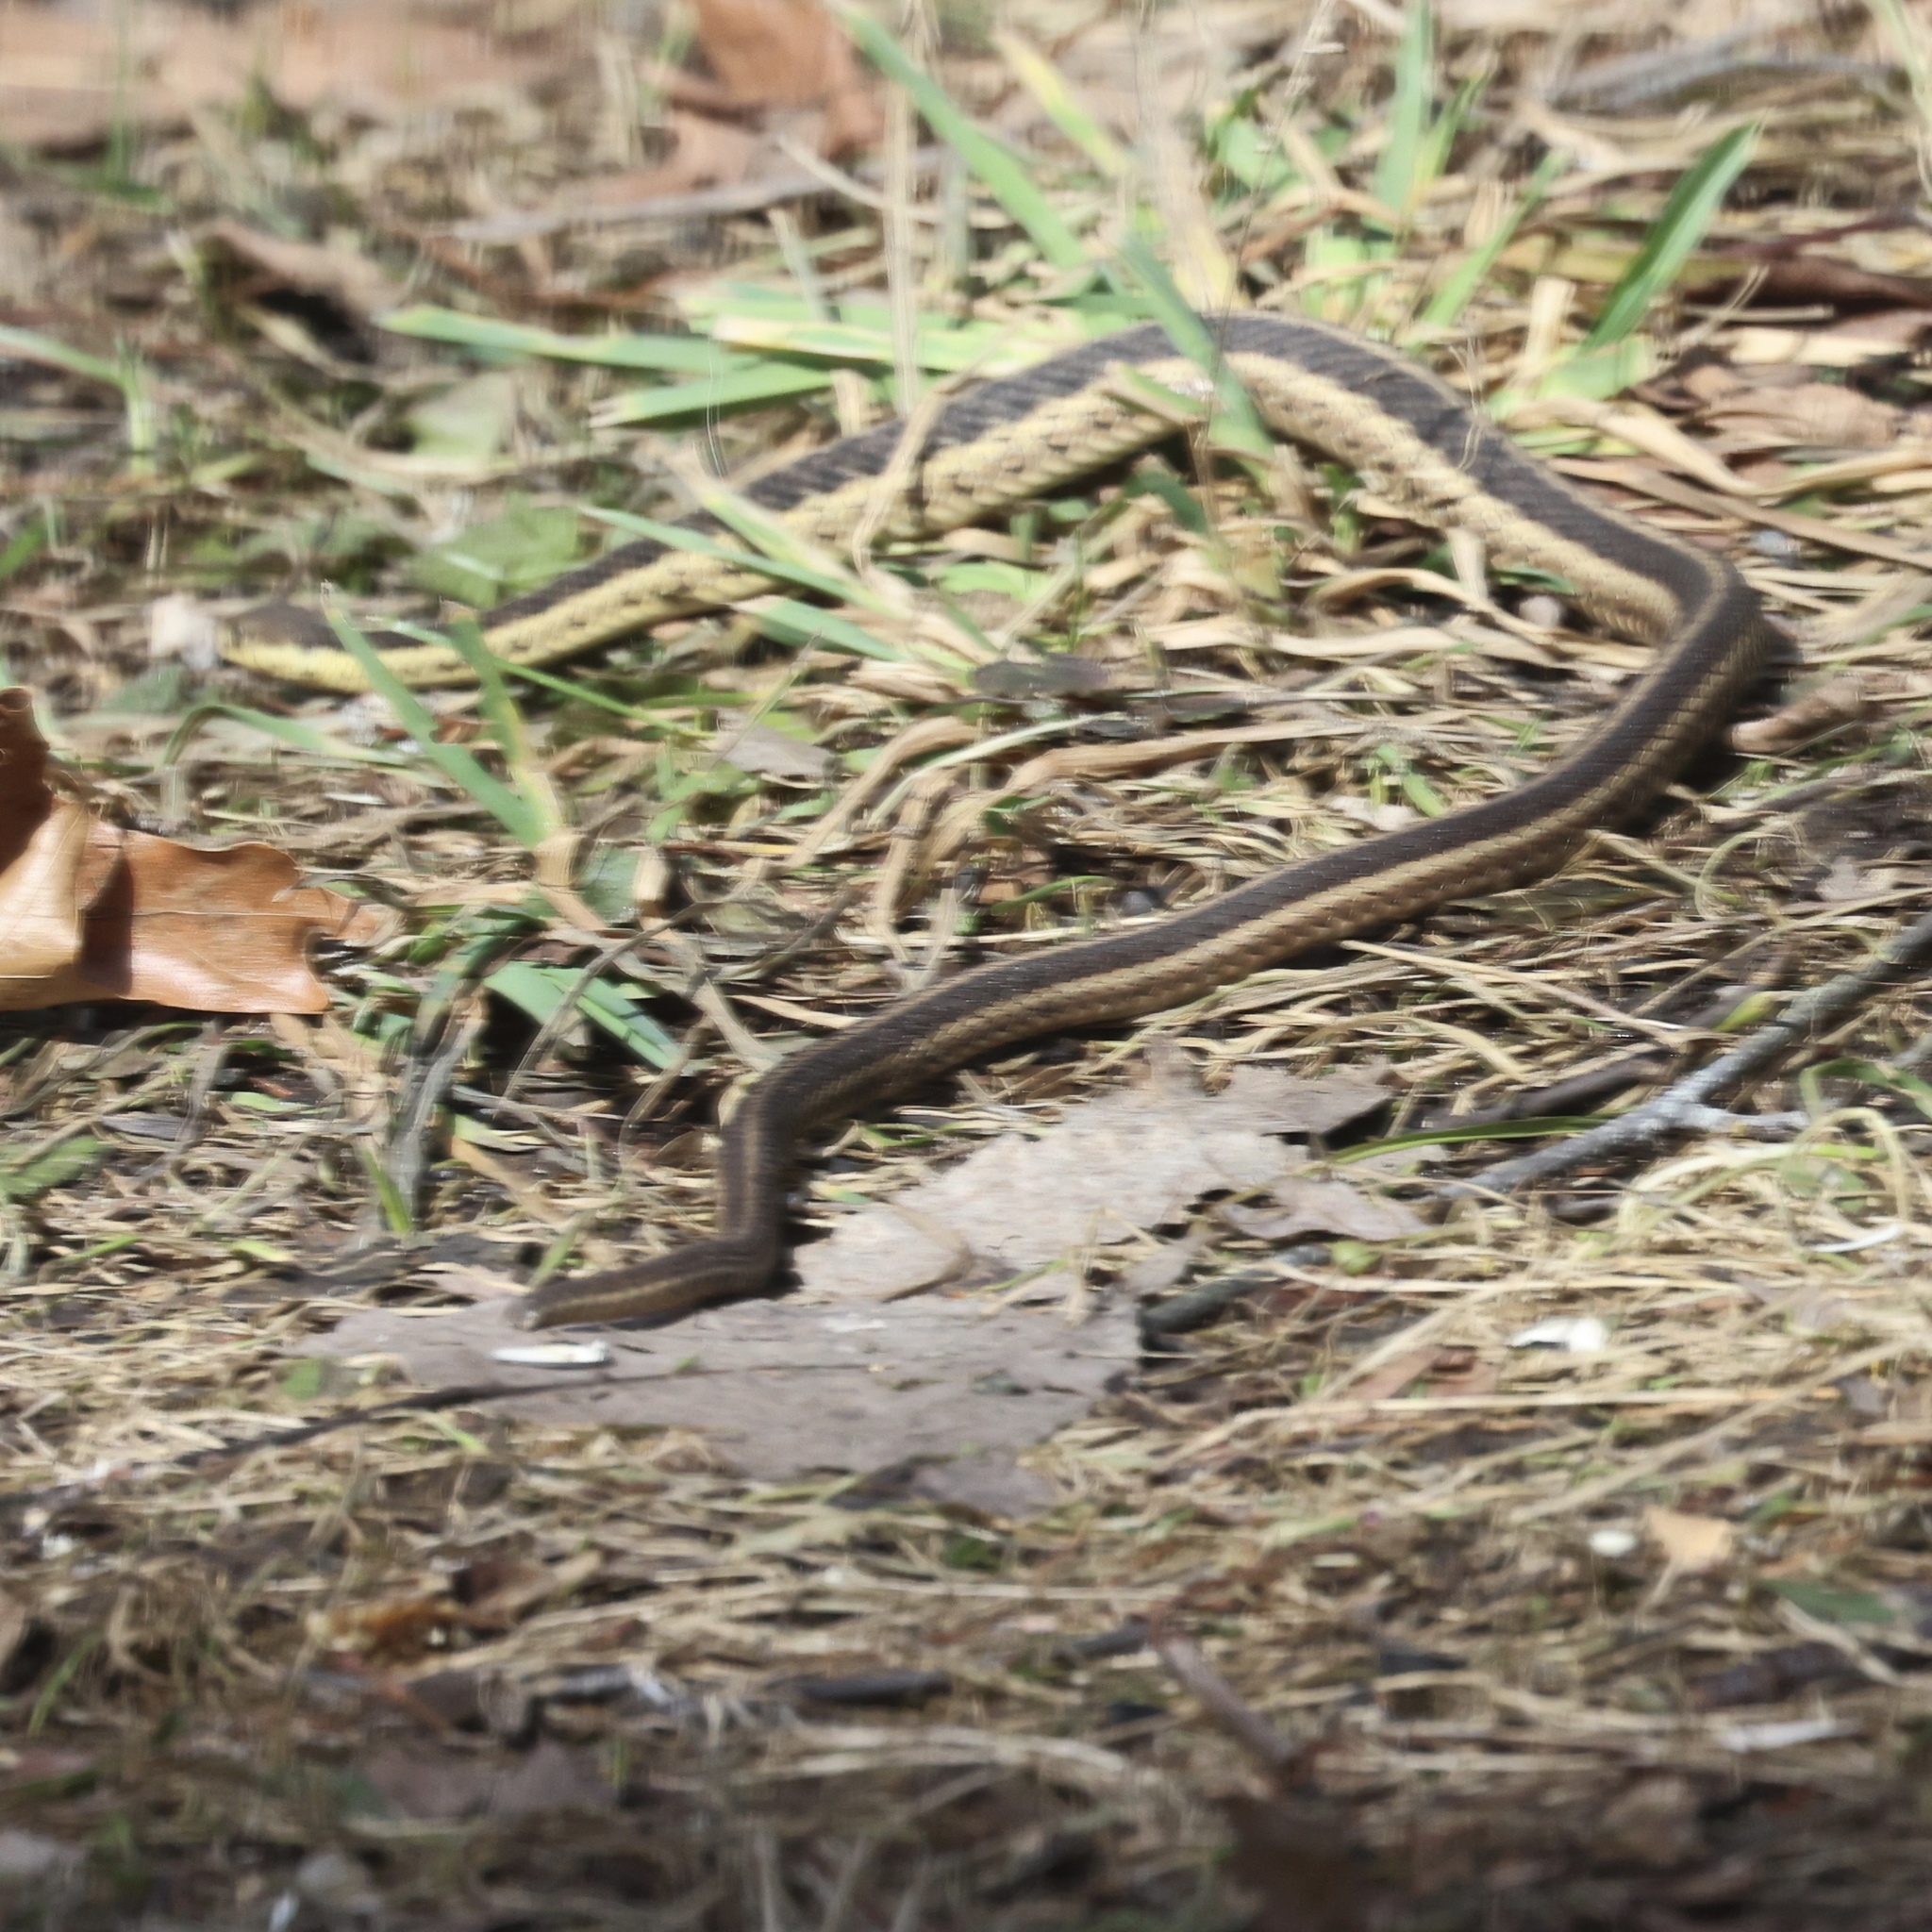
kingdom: Animalia
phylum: Chordata
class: Squamata
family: Colubridae
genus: Thamnophis
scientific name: Thamnophis sirtalis
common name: Common garter snake
